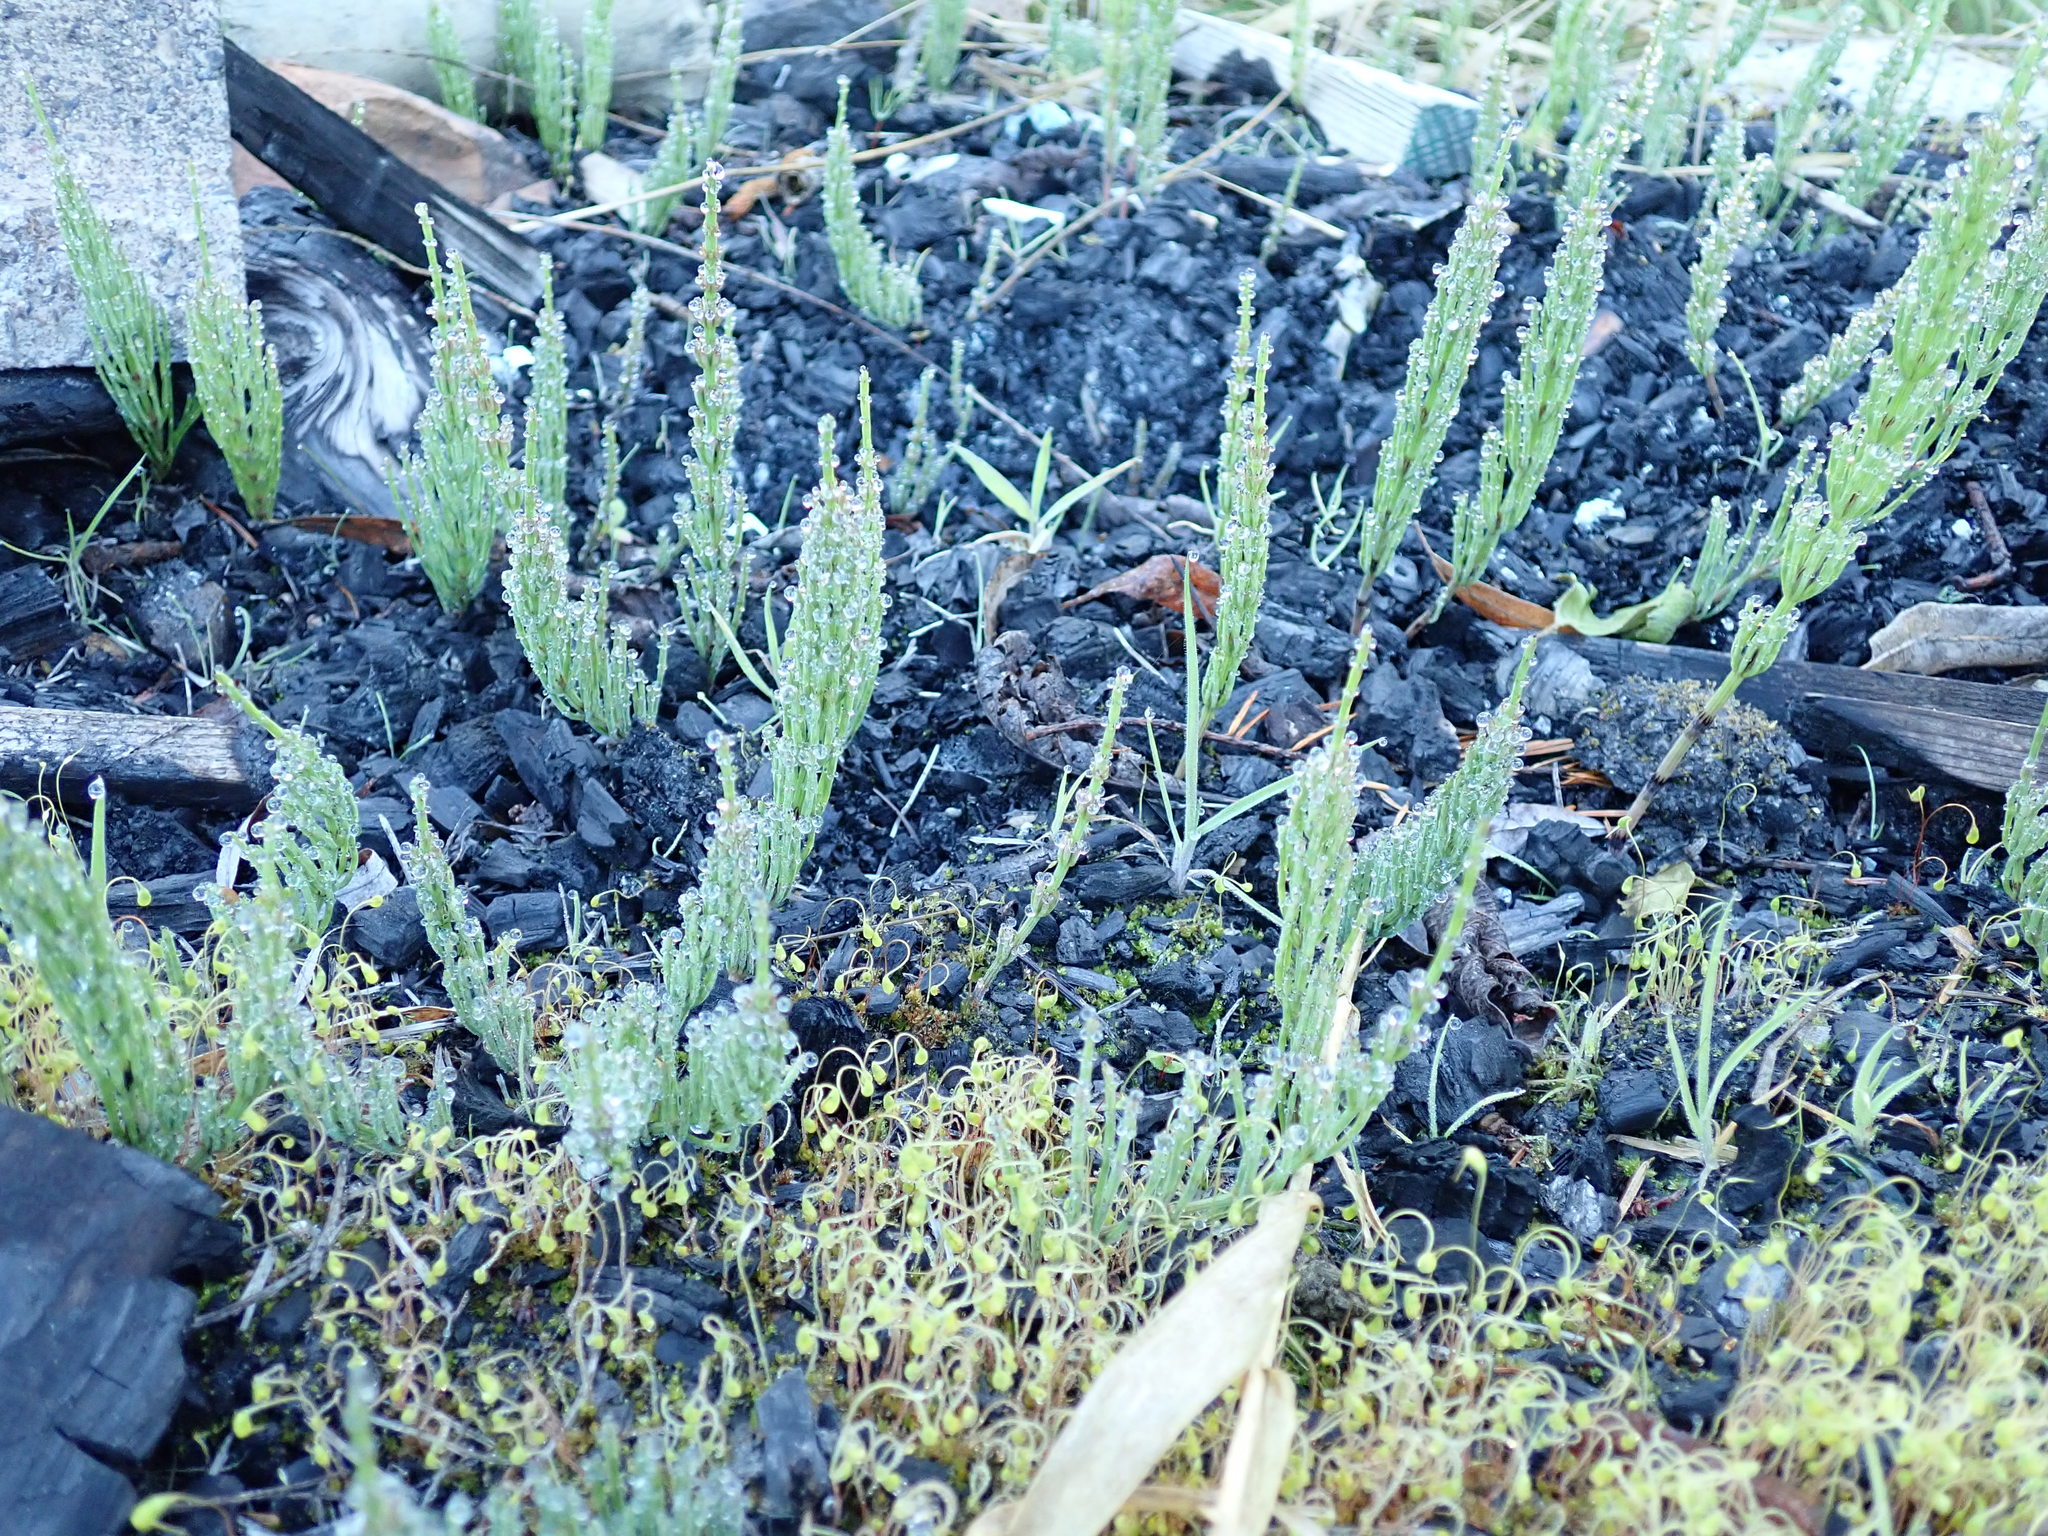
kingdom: Plantae
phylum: Tracheophyta
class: Polypodiopsida
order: Equisetales
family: Equisetaceae
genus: Equisetum
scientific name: Equisetum arvense
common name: Field horsetail
